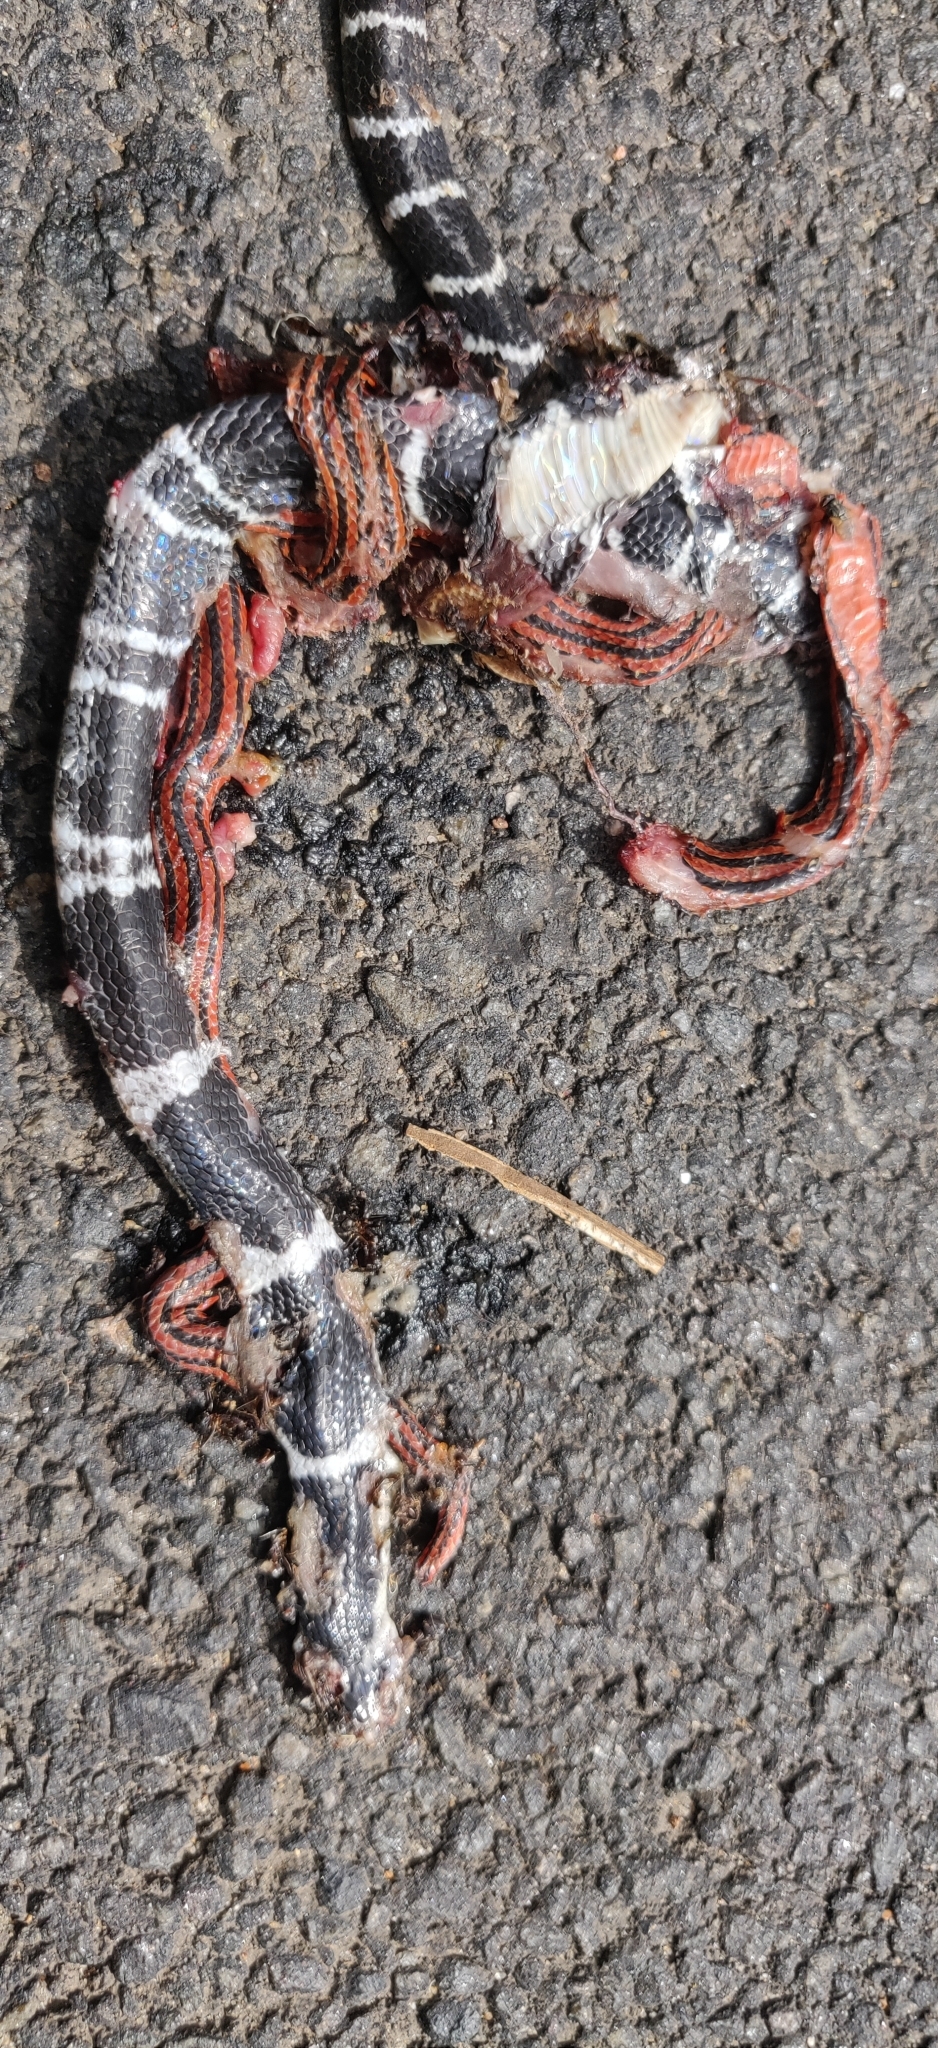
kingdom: Animalia
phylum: Chordata
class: Squamata
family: Elapidae
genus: Calliophis
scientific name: Calliophis nigrescens
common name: Black coral snake
